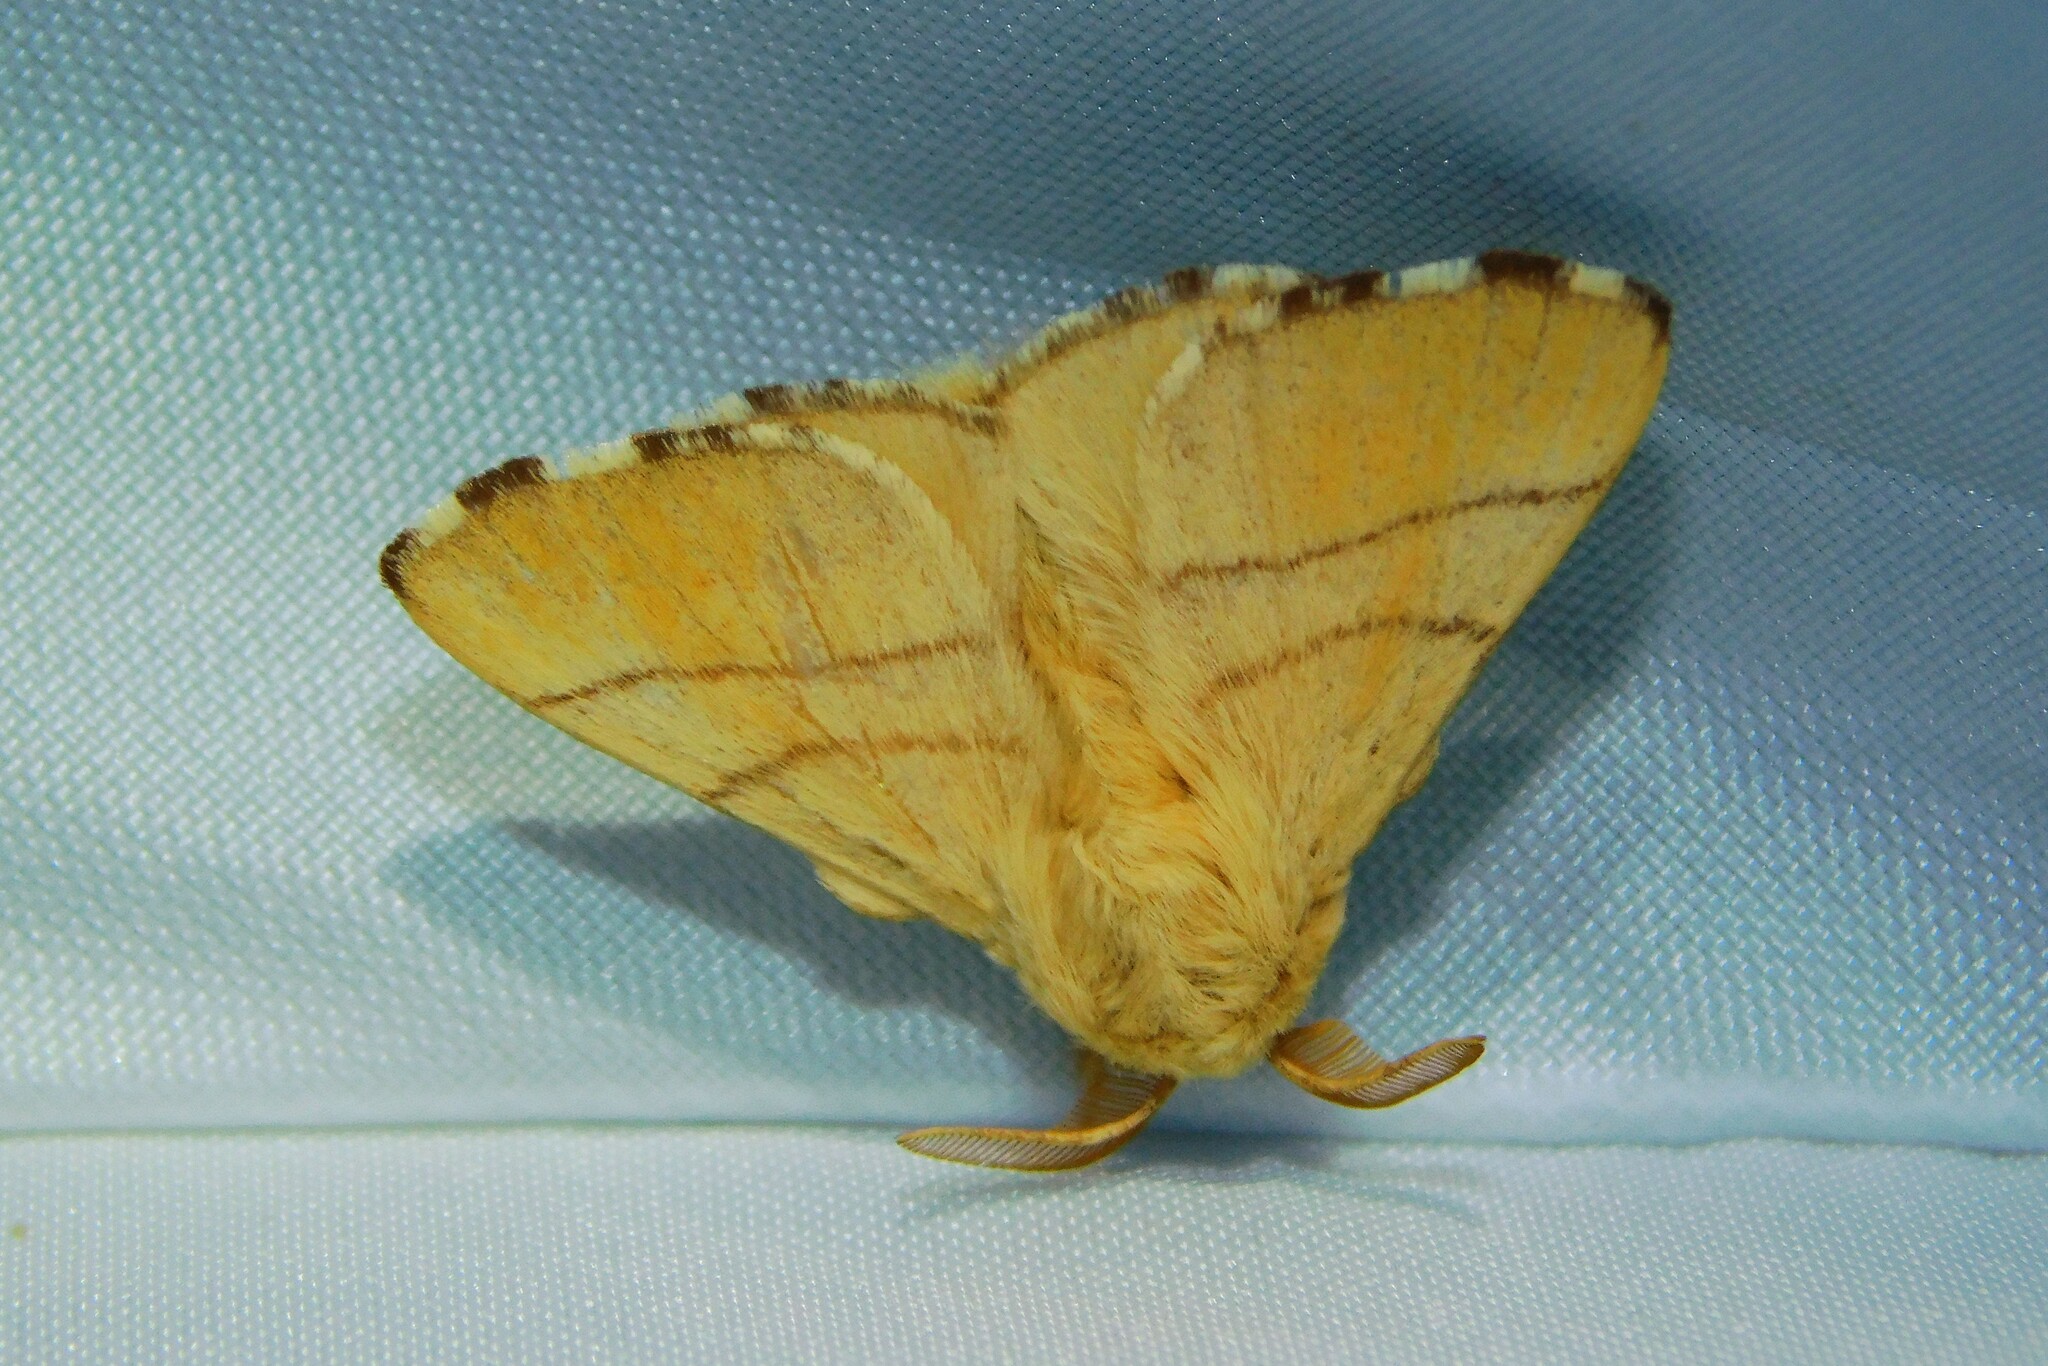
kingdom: Animalia
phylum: Arthropoda
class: Insecta
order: Lepidoptera
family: Lasiocampidae
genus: Malacosoma
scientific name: Malacosoma neustria
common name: The lackey
